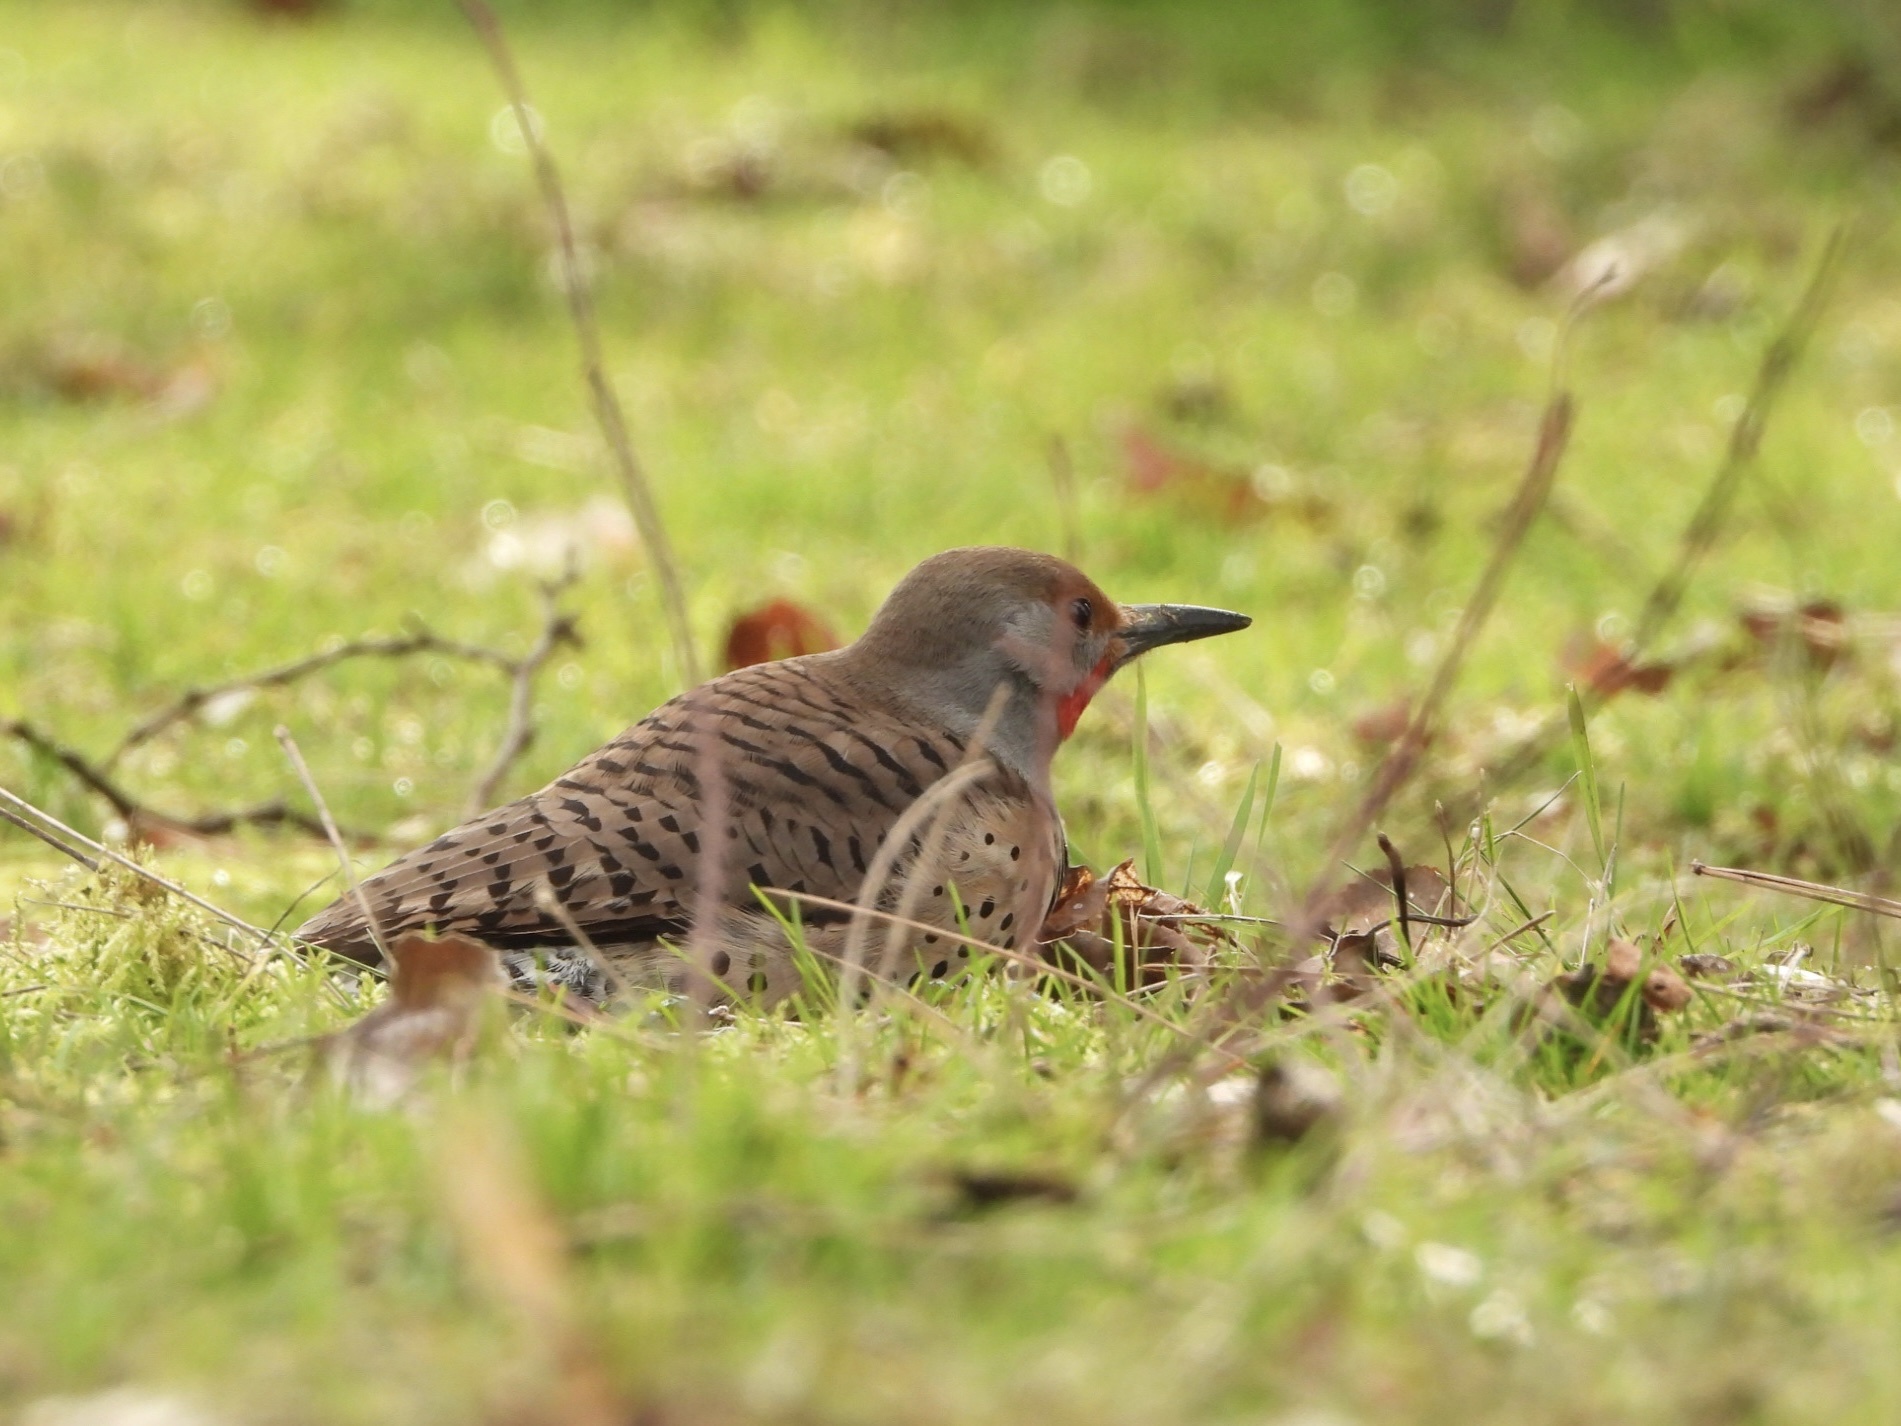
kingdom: Animalia
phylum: Chordata
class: Aves
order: Piciformes
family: Picidae
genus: Colaptes
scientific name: Colaptes auratus
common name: Northern flicker
